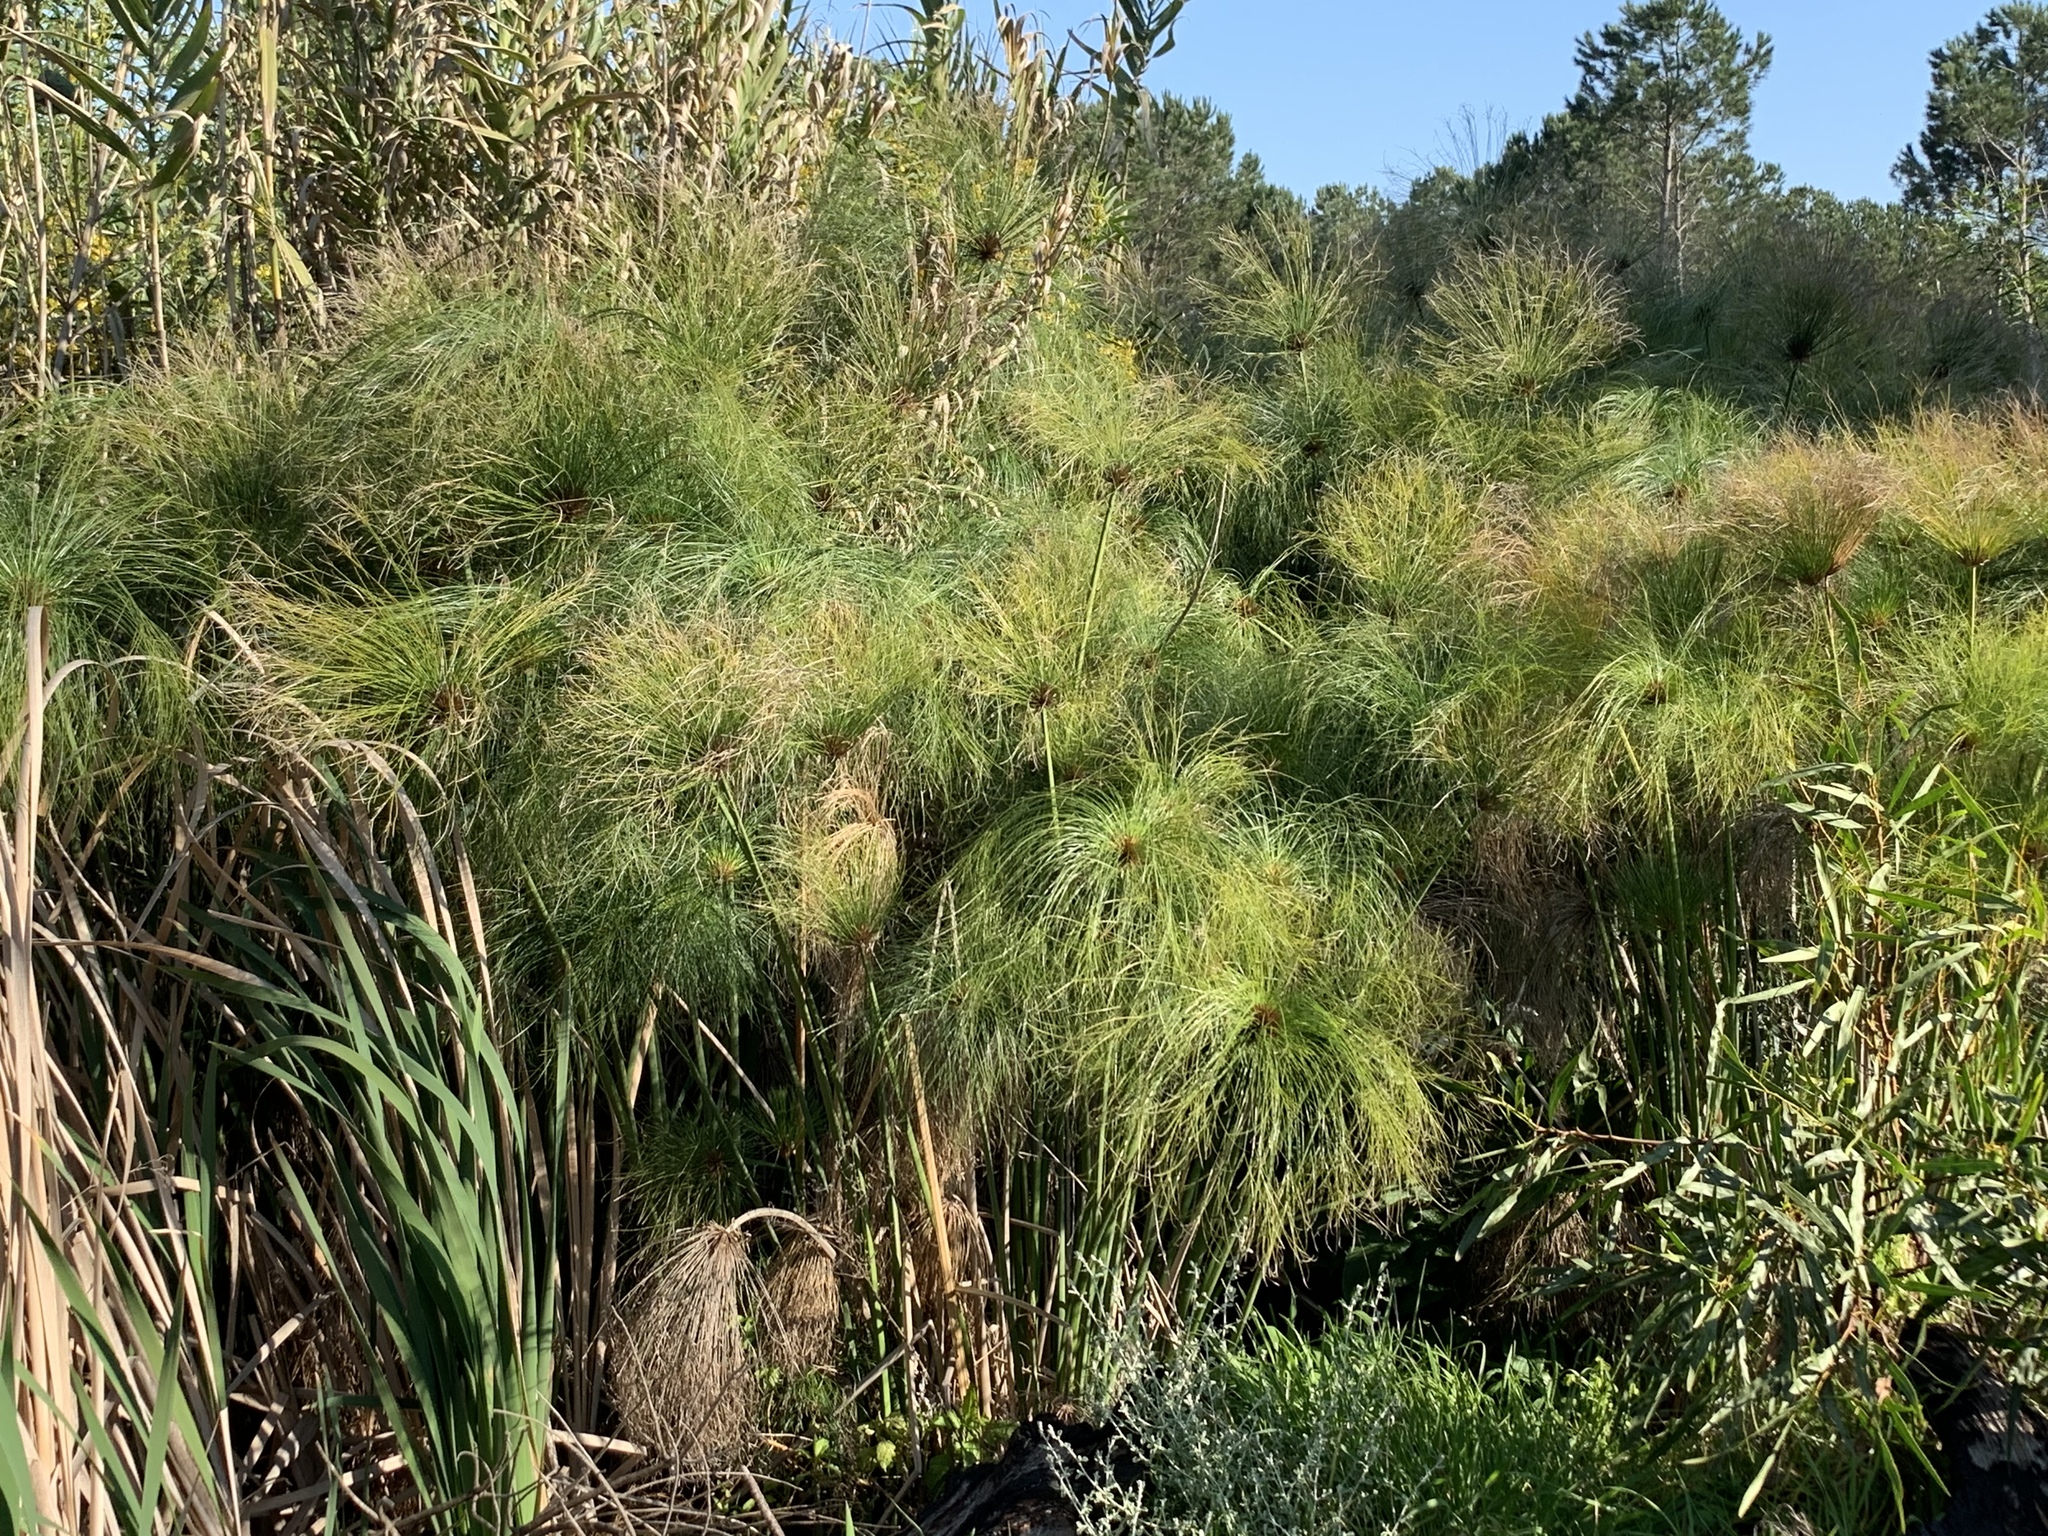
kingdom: Plantae
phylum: Tracheophyta
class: Liliopsida
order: Poales
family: Cyperaceae
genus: Cyperus
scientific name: Cyperus papyrus
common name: Papyrus
